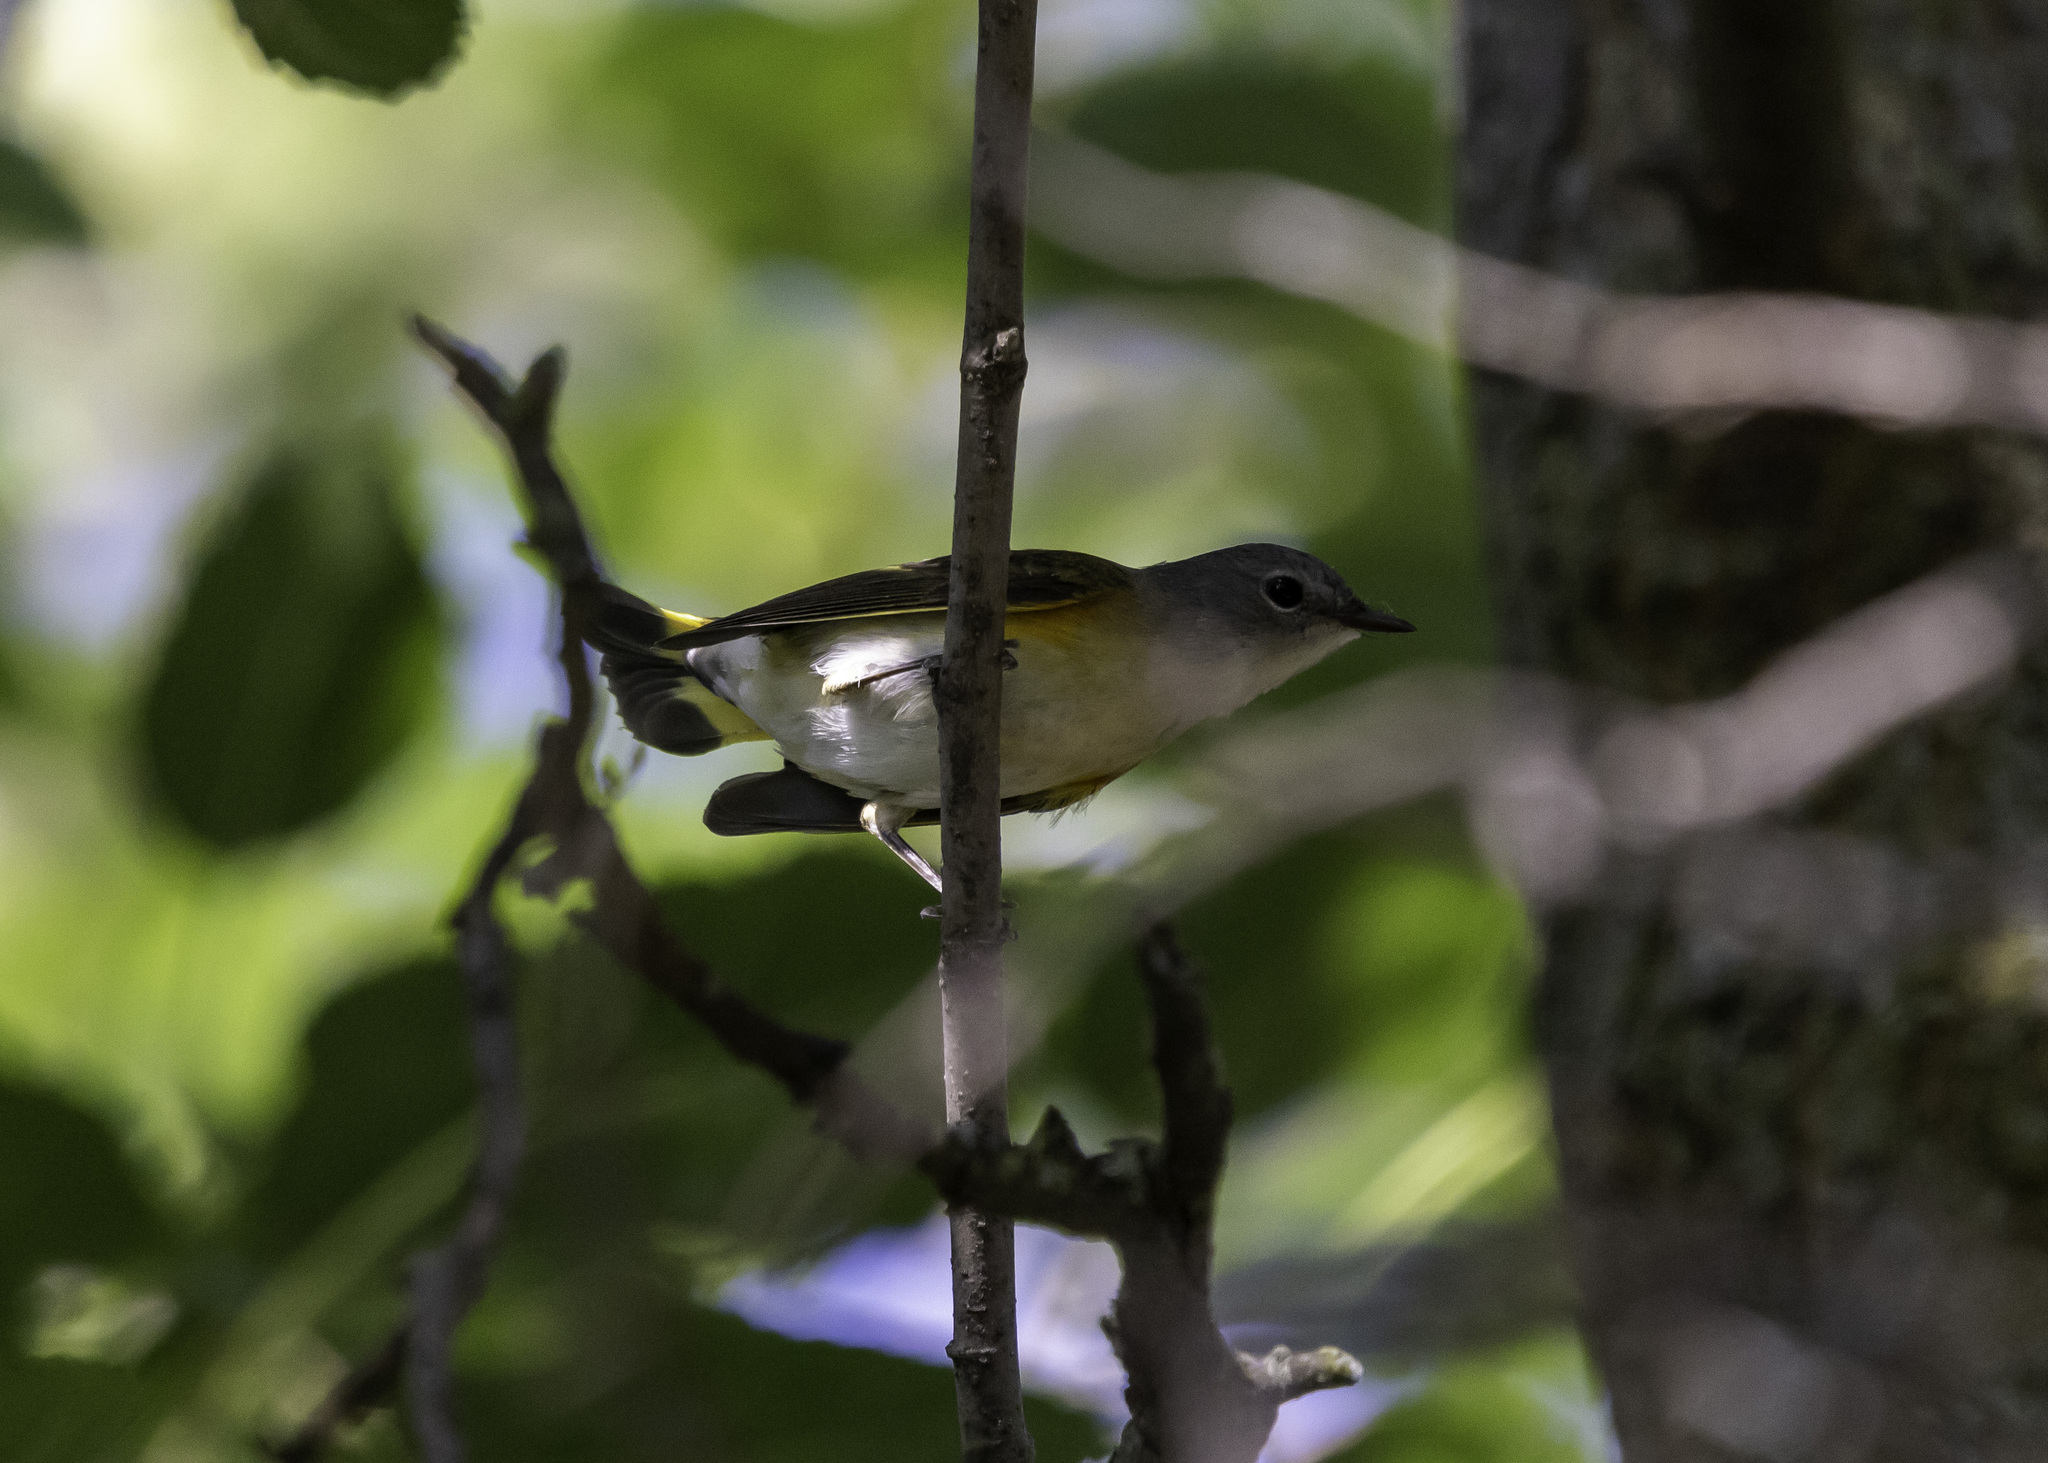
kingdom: Animalia
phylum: Chordata
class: Aves
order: Passeriformes
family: Parulidae
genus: Setophaga
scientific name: Setophaga ruticilla
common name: American redstart
